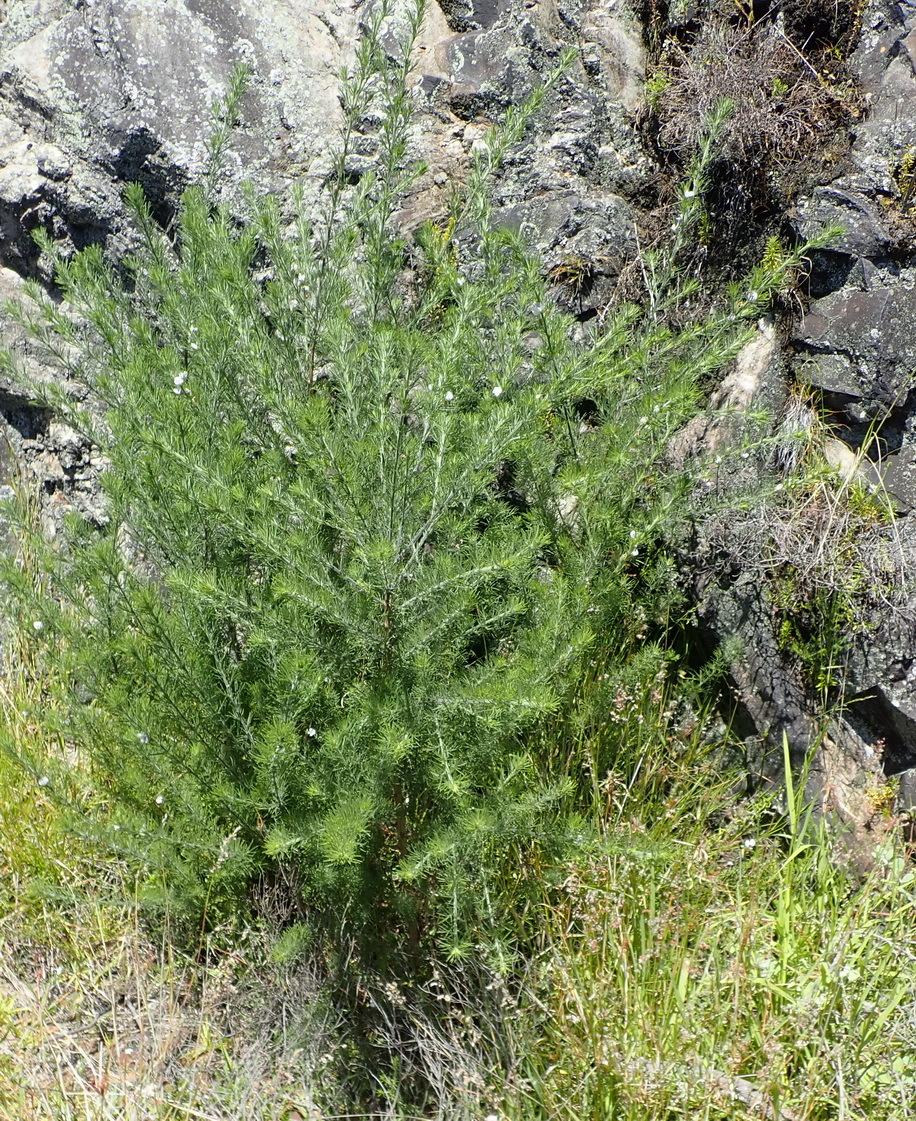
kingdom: Plantae
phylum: Tracheophyta
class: Magnoliopsida
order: Fabales
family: Fabaceae
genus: Psoralea
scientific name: Psoralea floccosa
